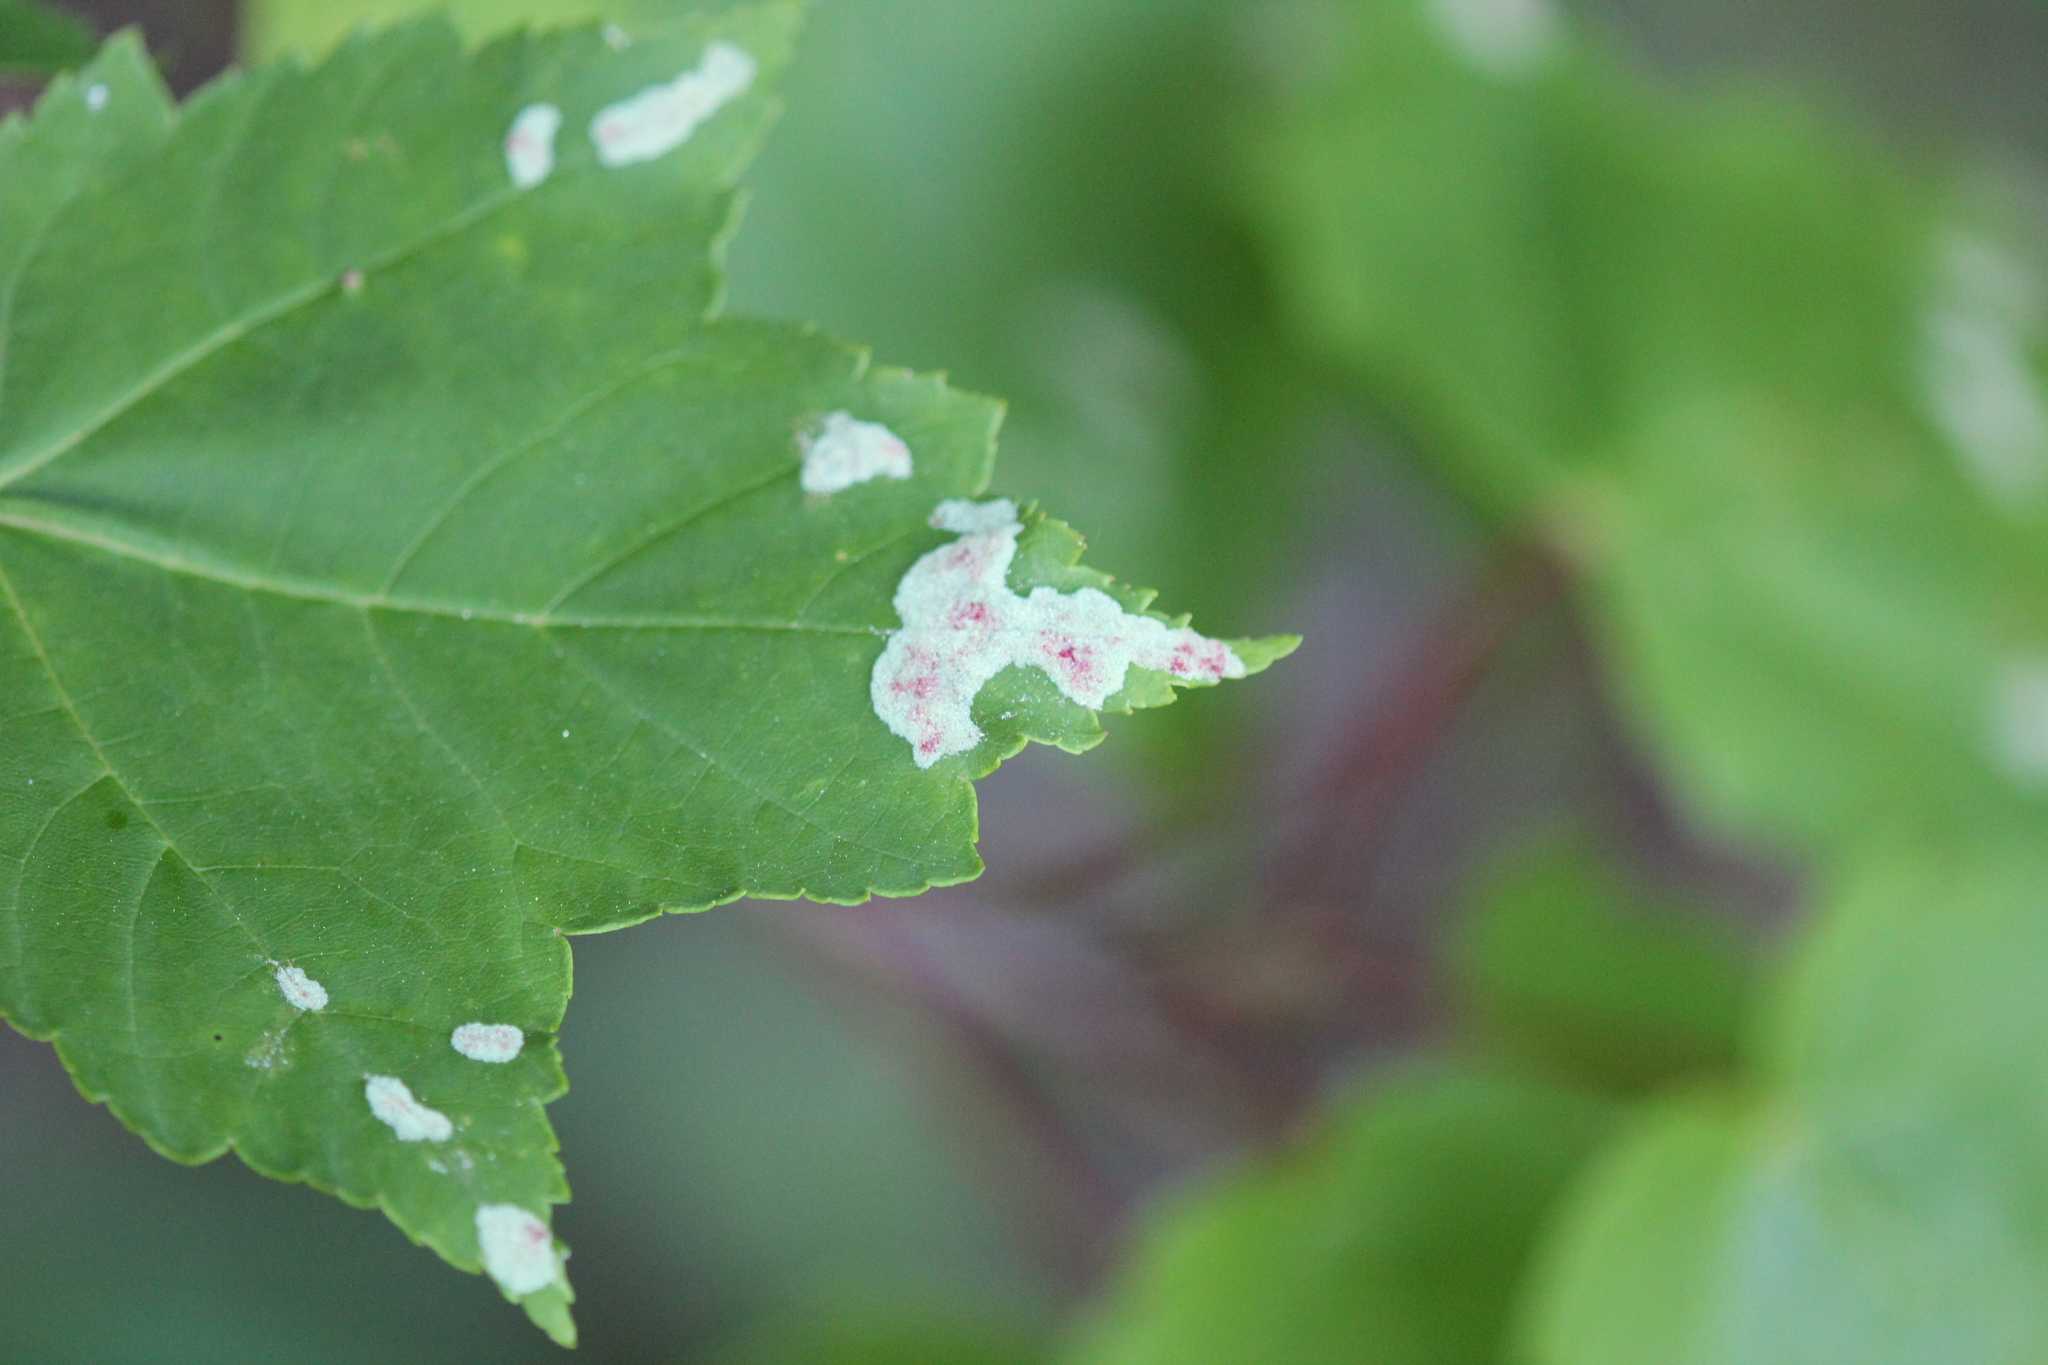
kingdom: Animalia
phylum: Arthropoda
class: Arachnida
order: Trombidiformes
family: Eriophyidae
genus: Aculus
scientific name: Aculus
